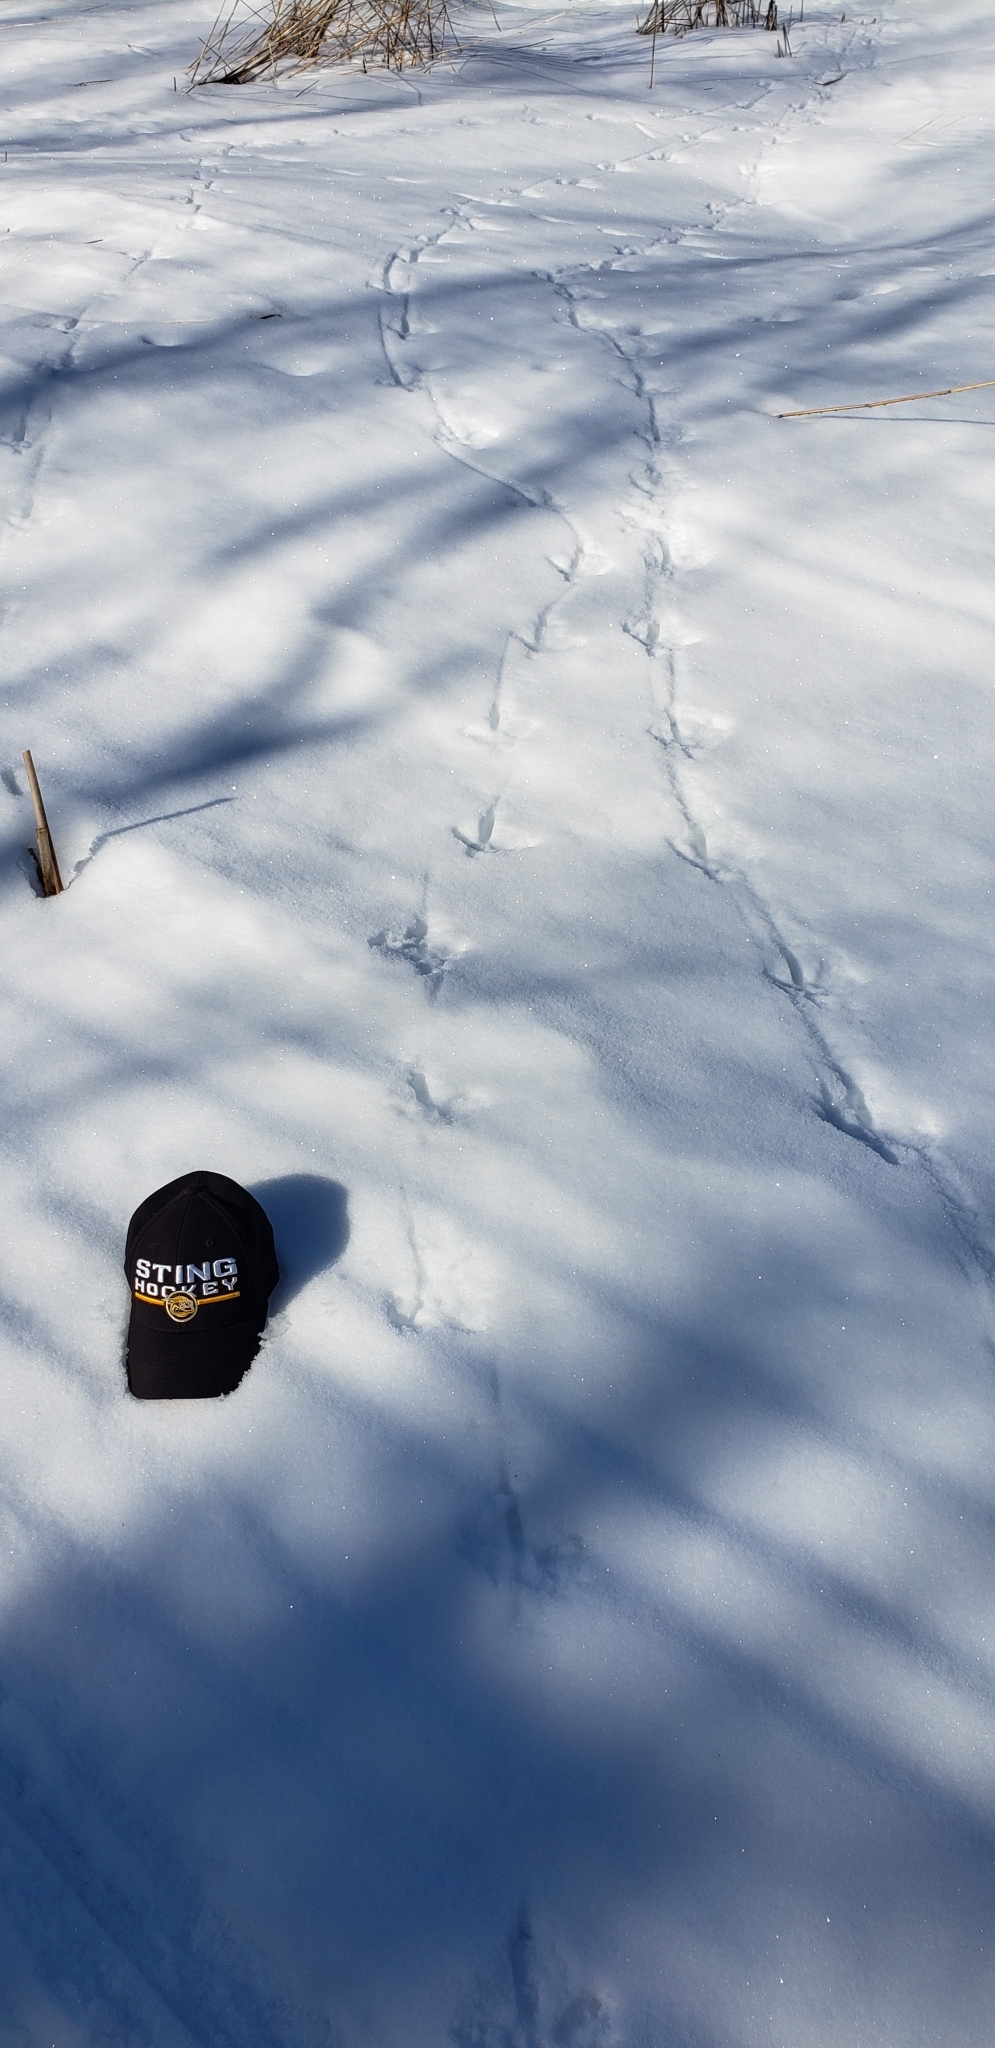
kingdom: Animalia
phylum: Chordata
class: Aves
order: Galliformes
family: Phasianidae
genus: Meleagris
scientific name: Meleagris gallopavo
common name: Wild turkey
